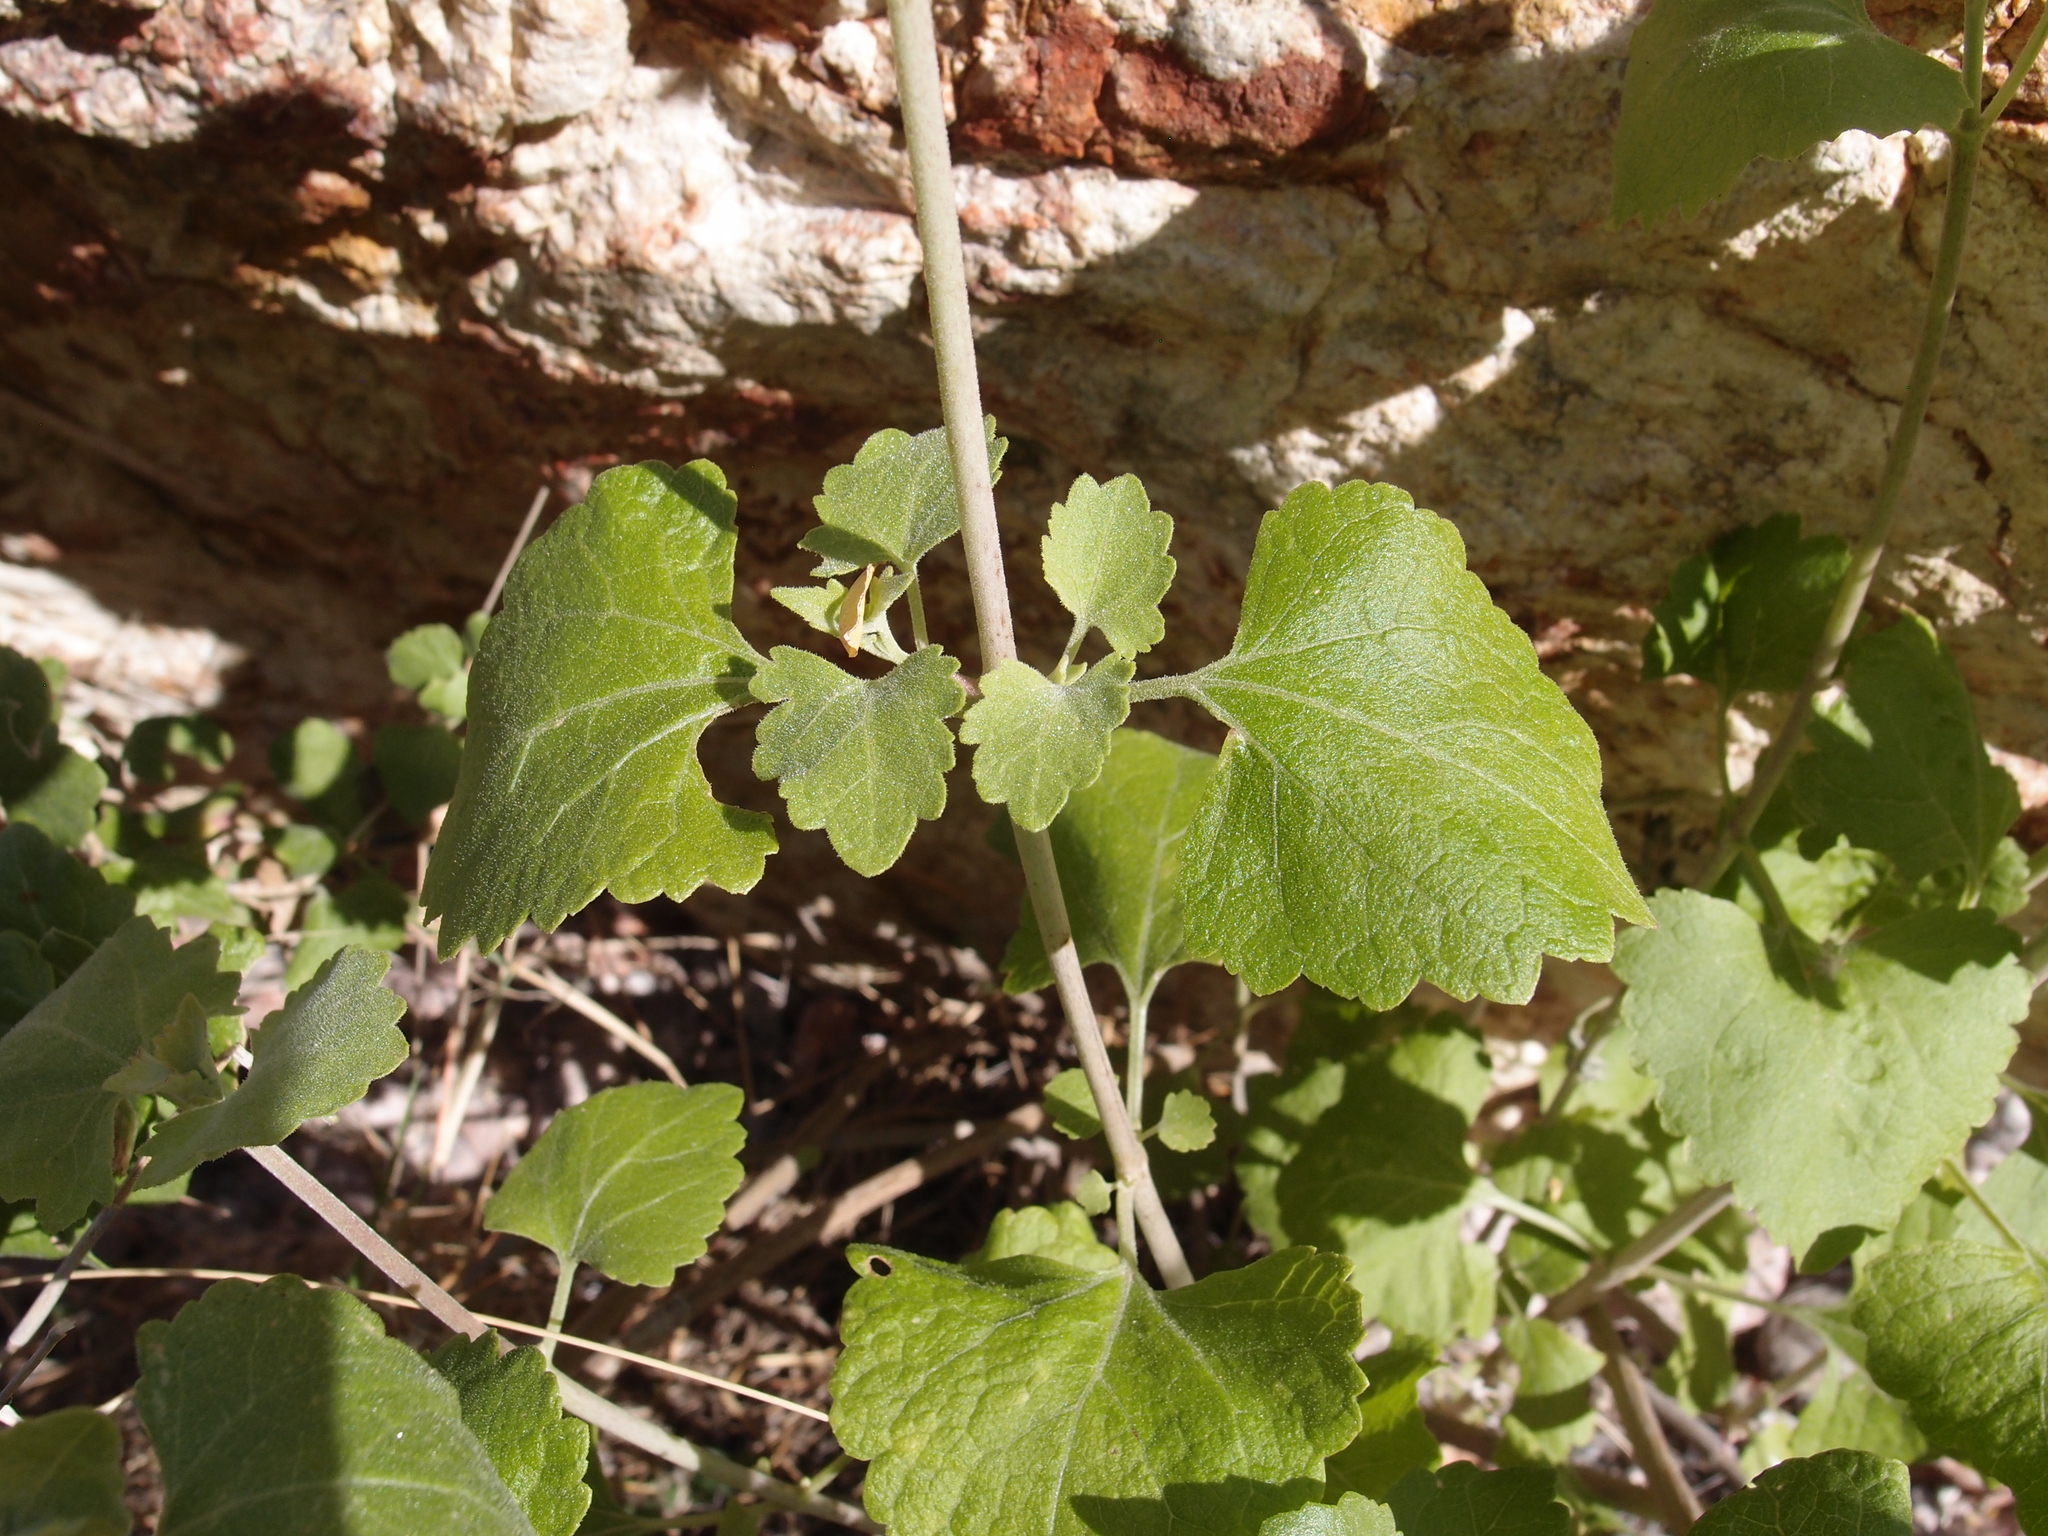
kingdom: Plantae
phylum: Tracheophyta
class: Magnoliopsida
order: Asterales
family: Asteraceae
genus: Brickellia
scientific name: Brickellia rhomboidea
